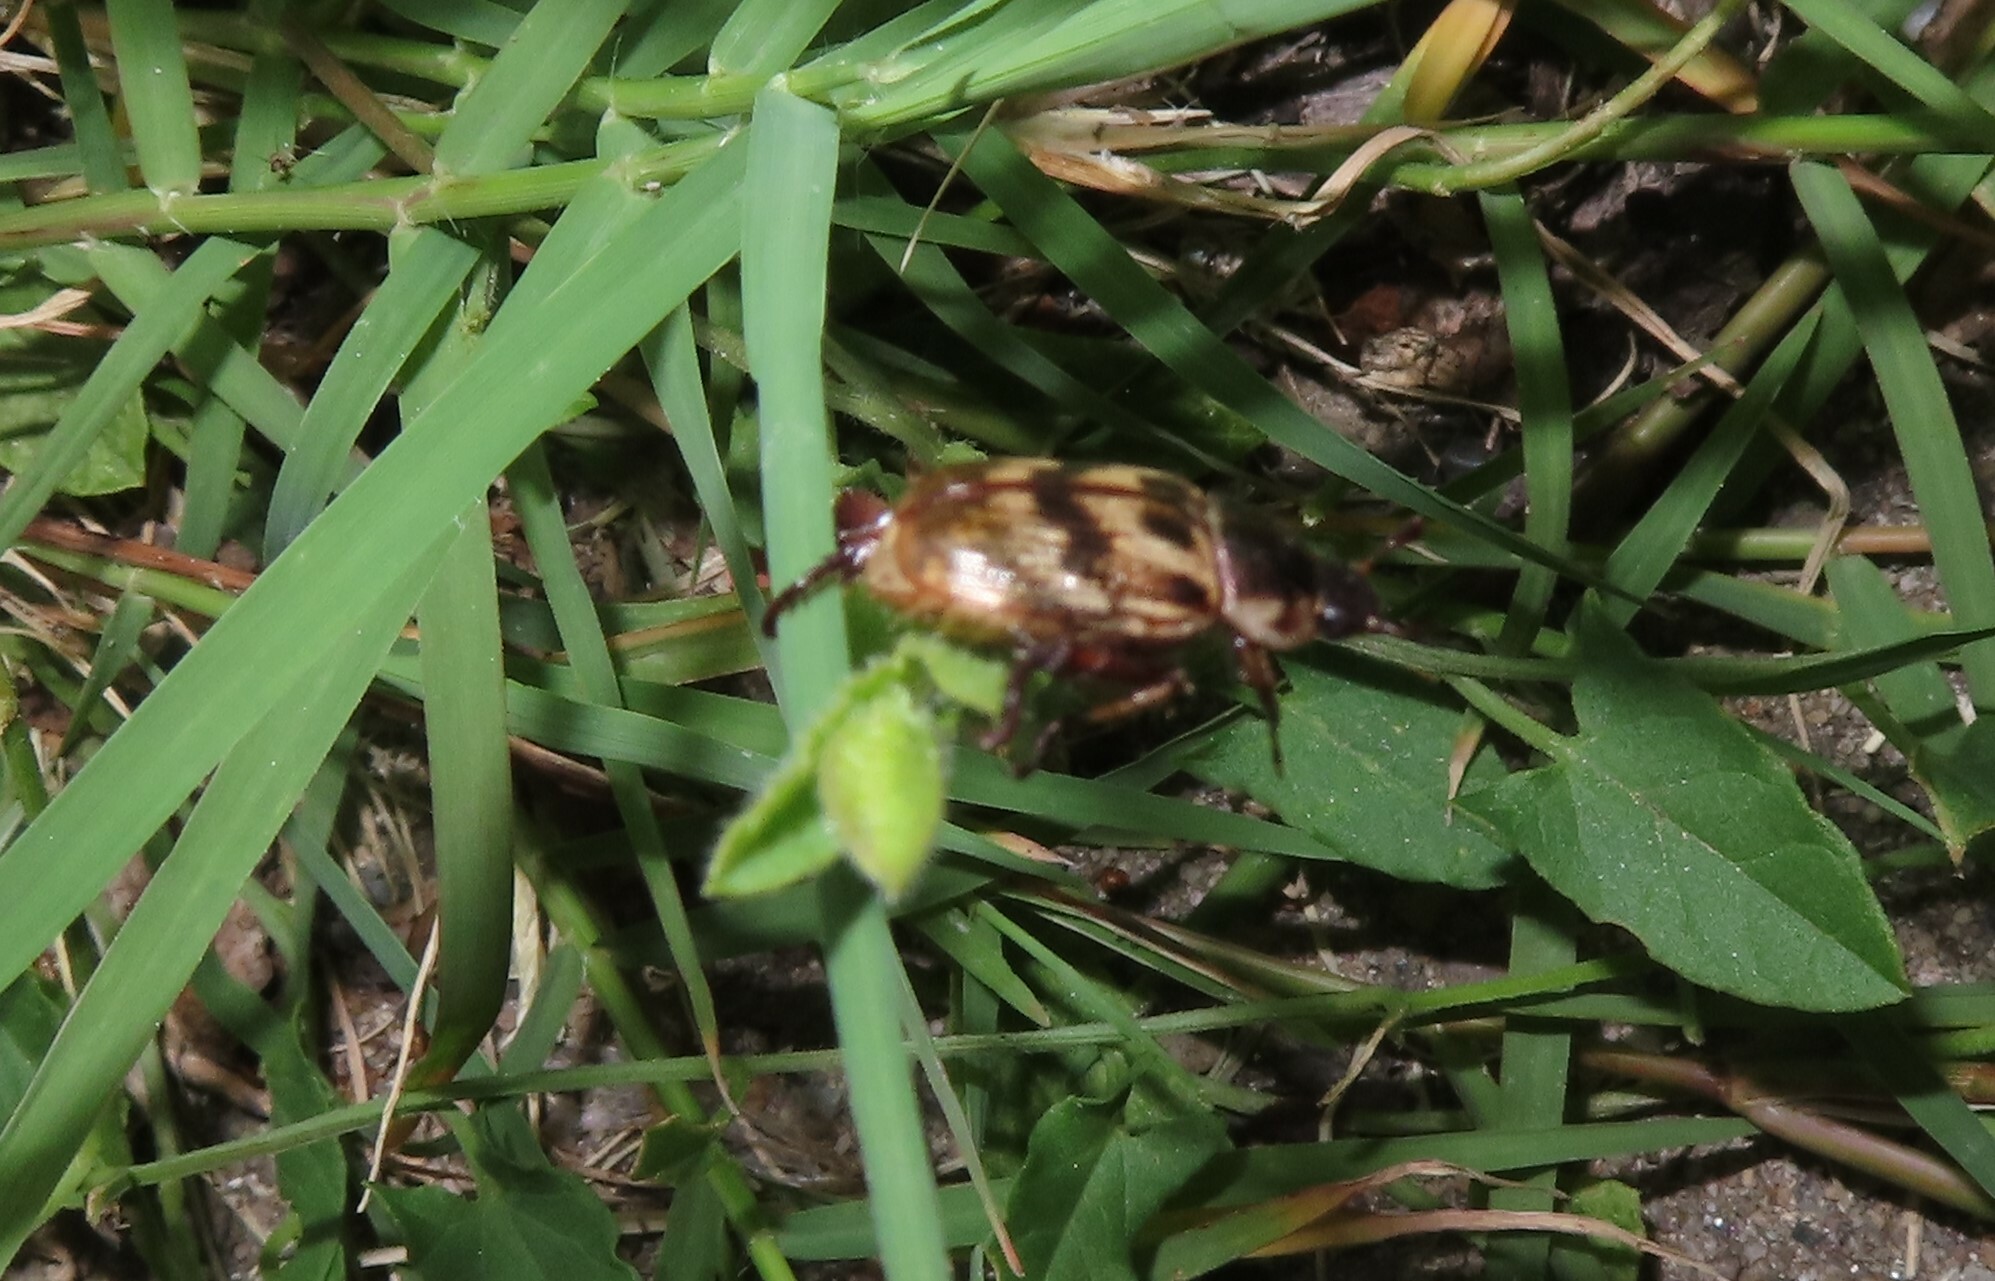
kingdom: Animalia
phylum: Arthropoda
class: Insecta
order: Coleoptera
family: Scarabaeidae
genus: Exomala
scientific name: Exomala orientalis
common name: Oriental beetle
